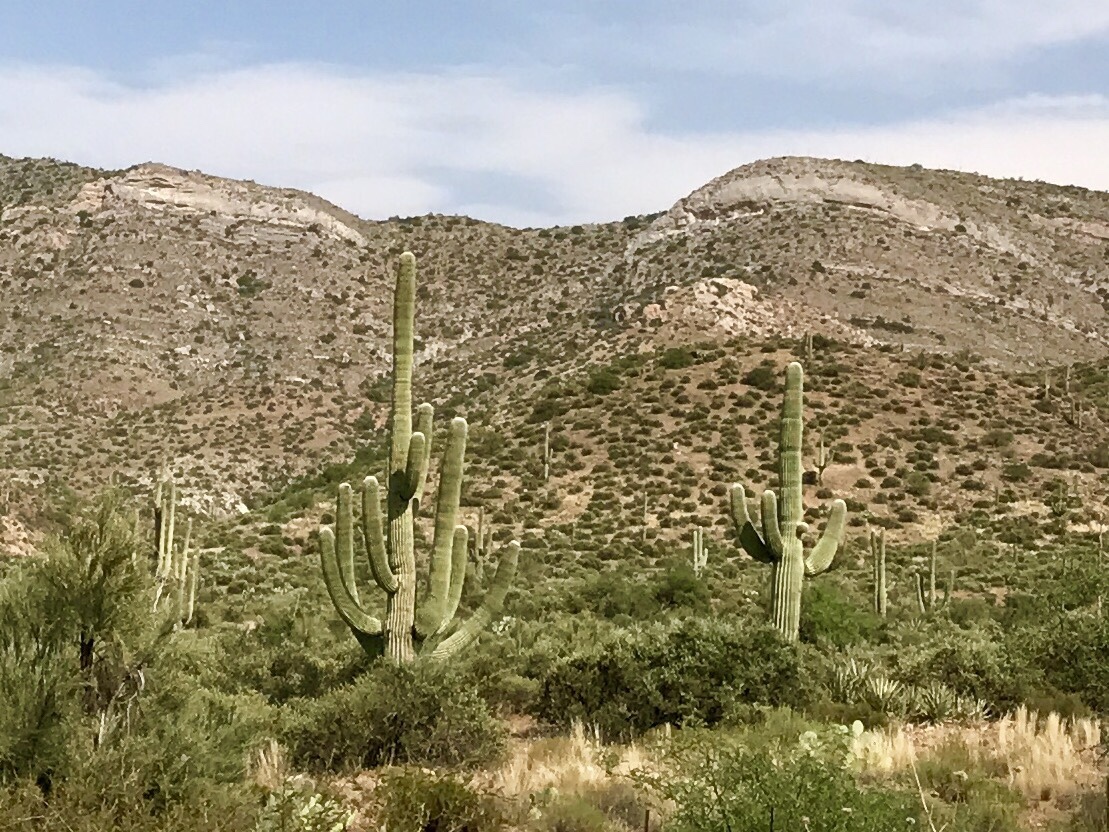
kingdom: Plantae
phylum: Tracheophyta
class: Magnoliopsida
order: Caryophyllales
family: Cactaceae
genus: Carnegiea
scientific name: Carnegiea gigantea
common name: Saguaro
